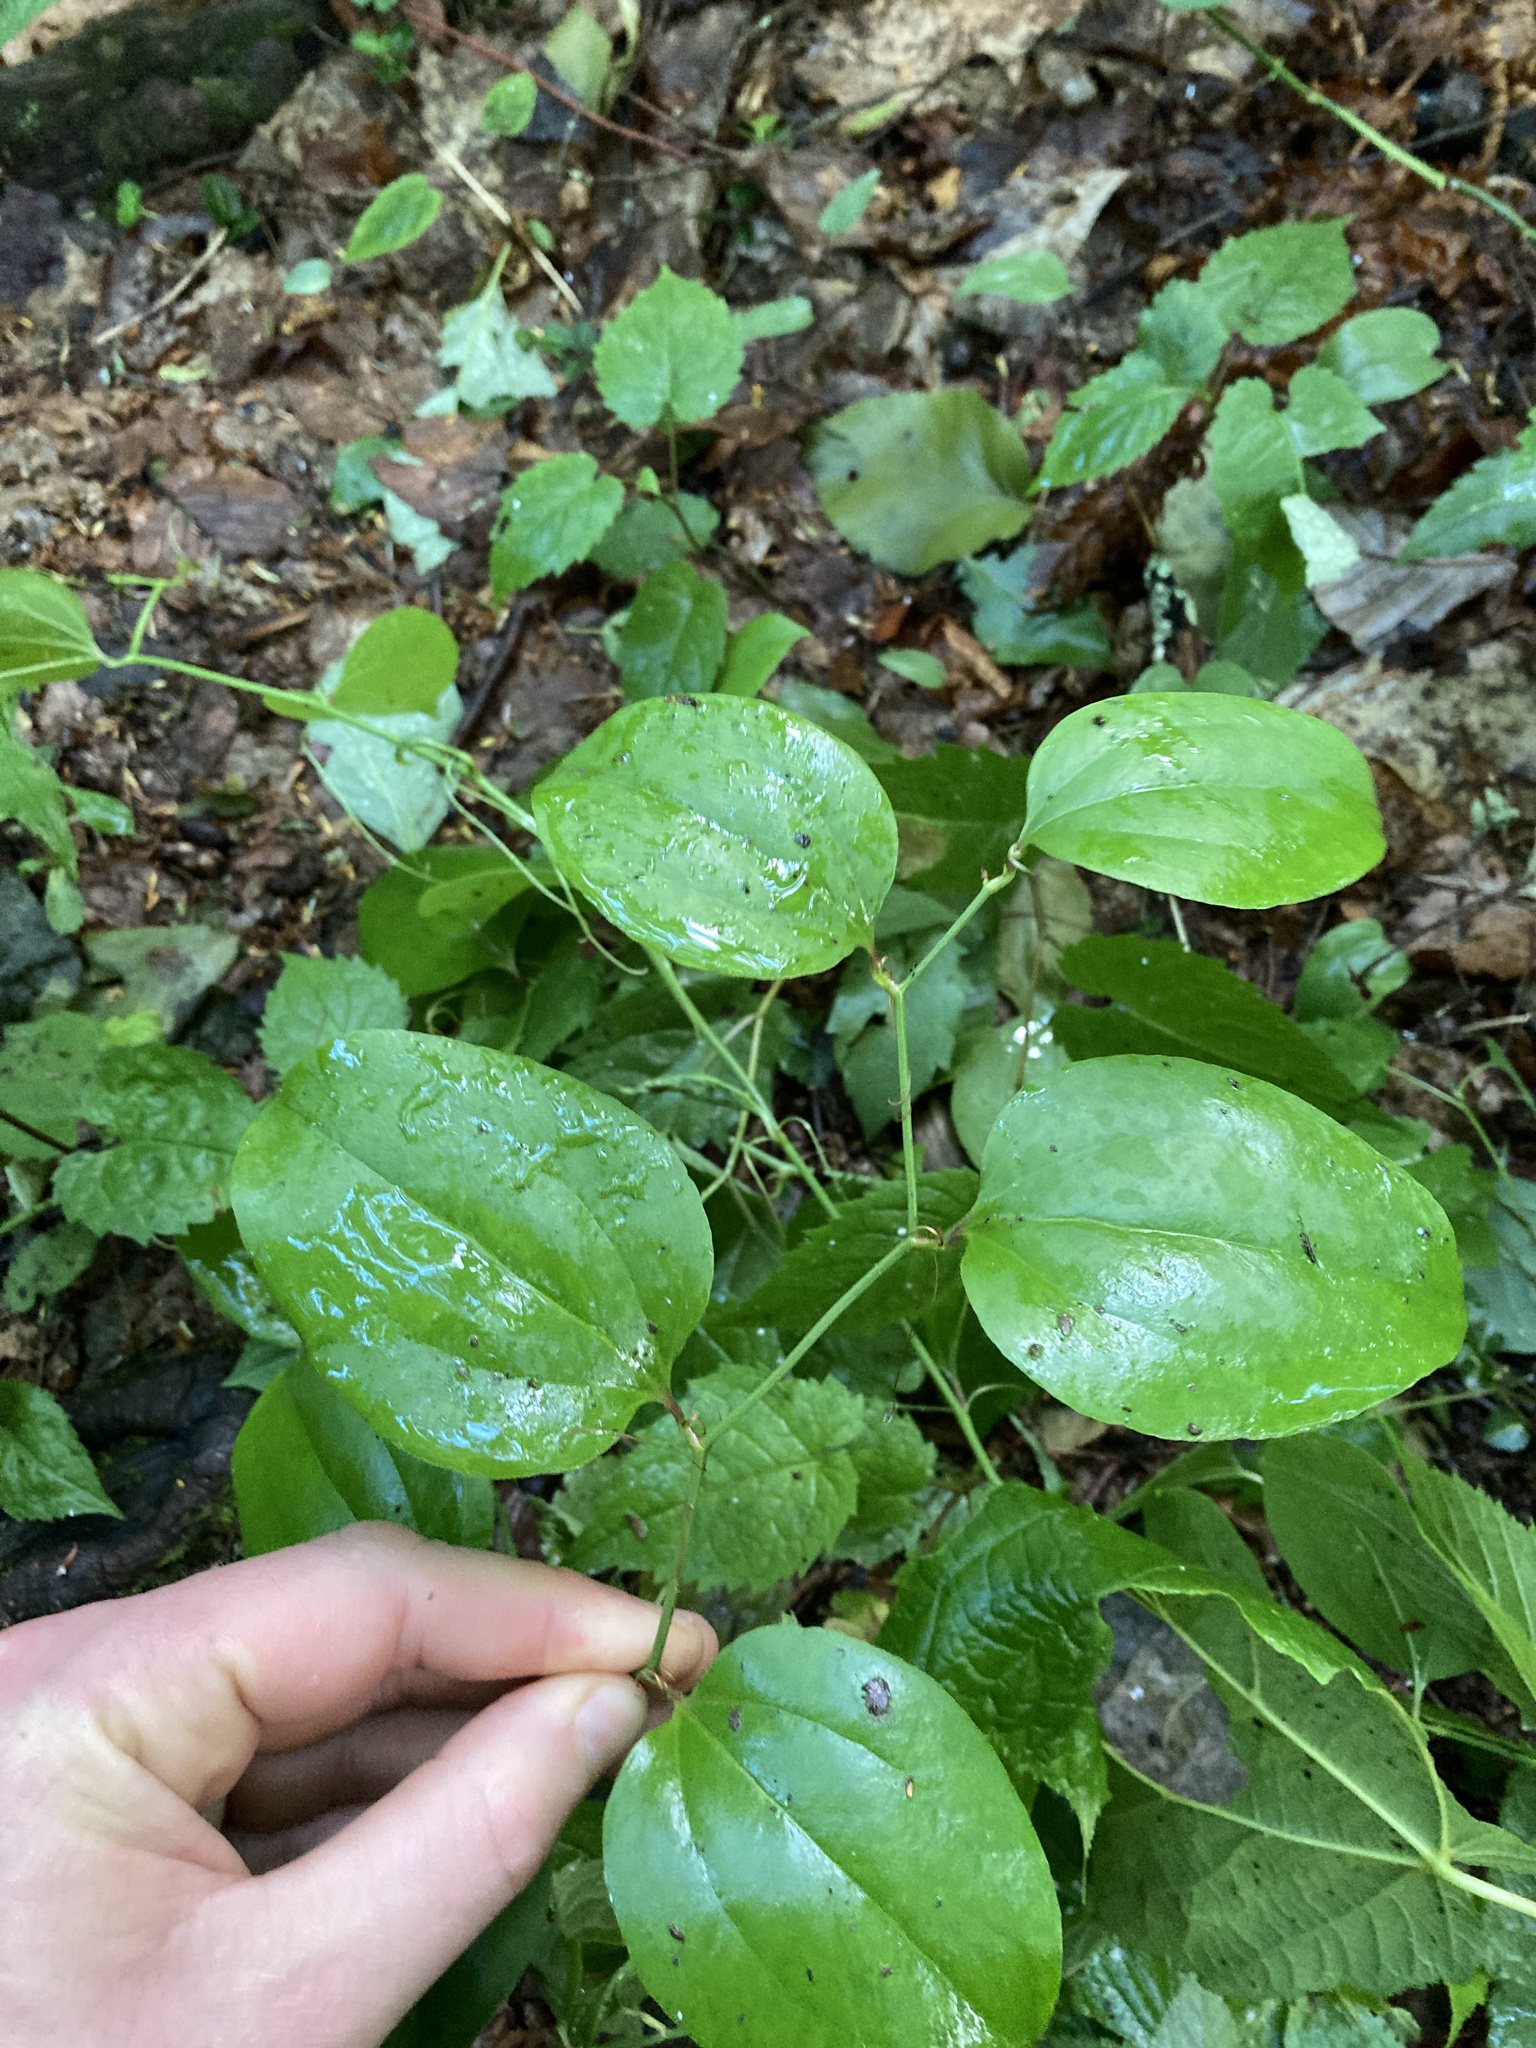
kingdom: Plantae
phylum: Tracheophyta
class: Liliopsida
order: Liliales
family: Smilacaceae
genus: Smilax
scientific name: Smilax rotundifolia
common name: Bullbriar
